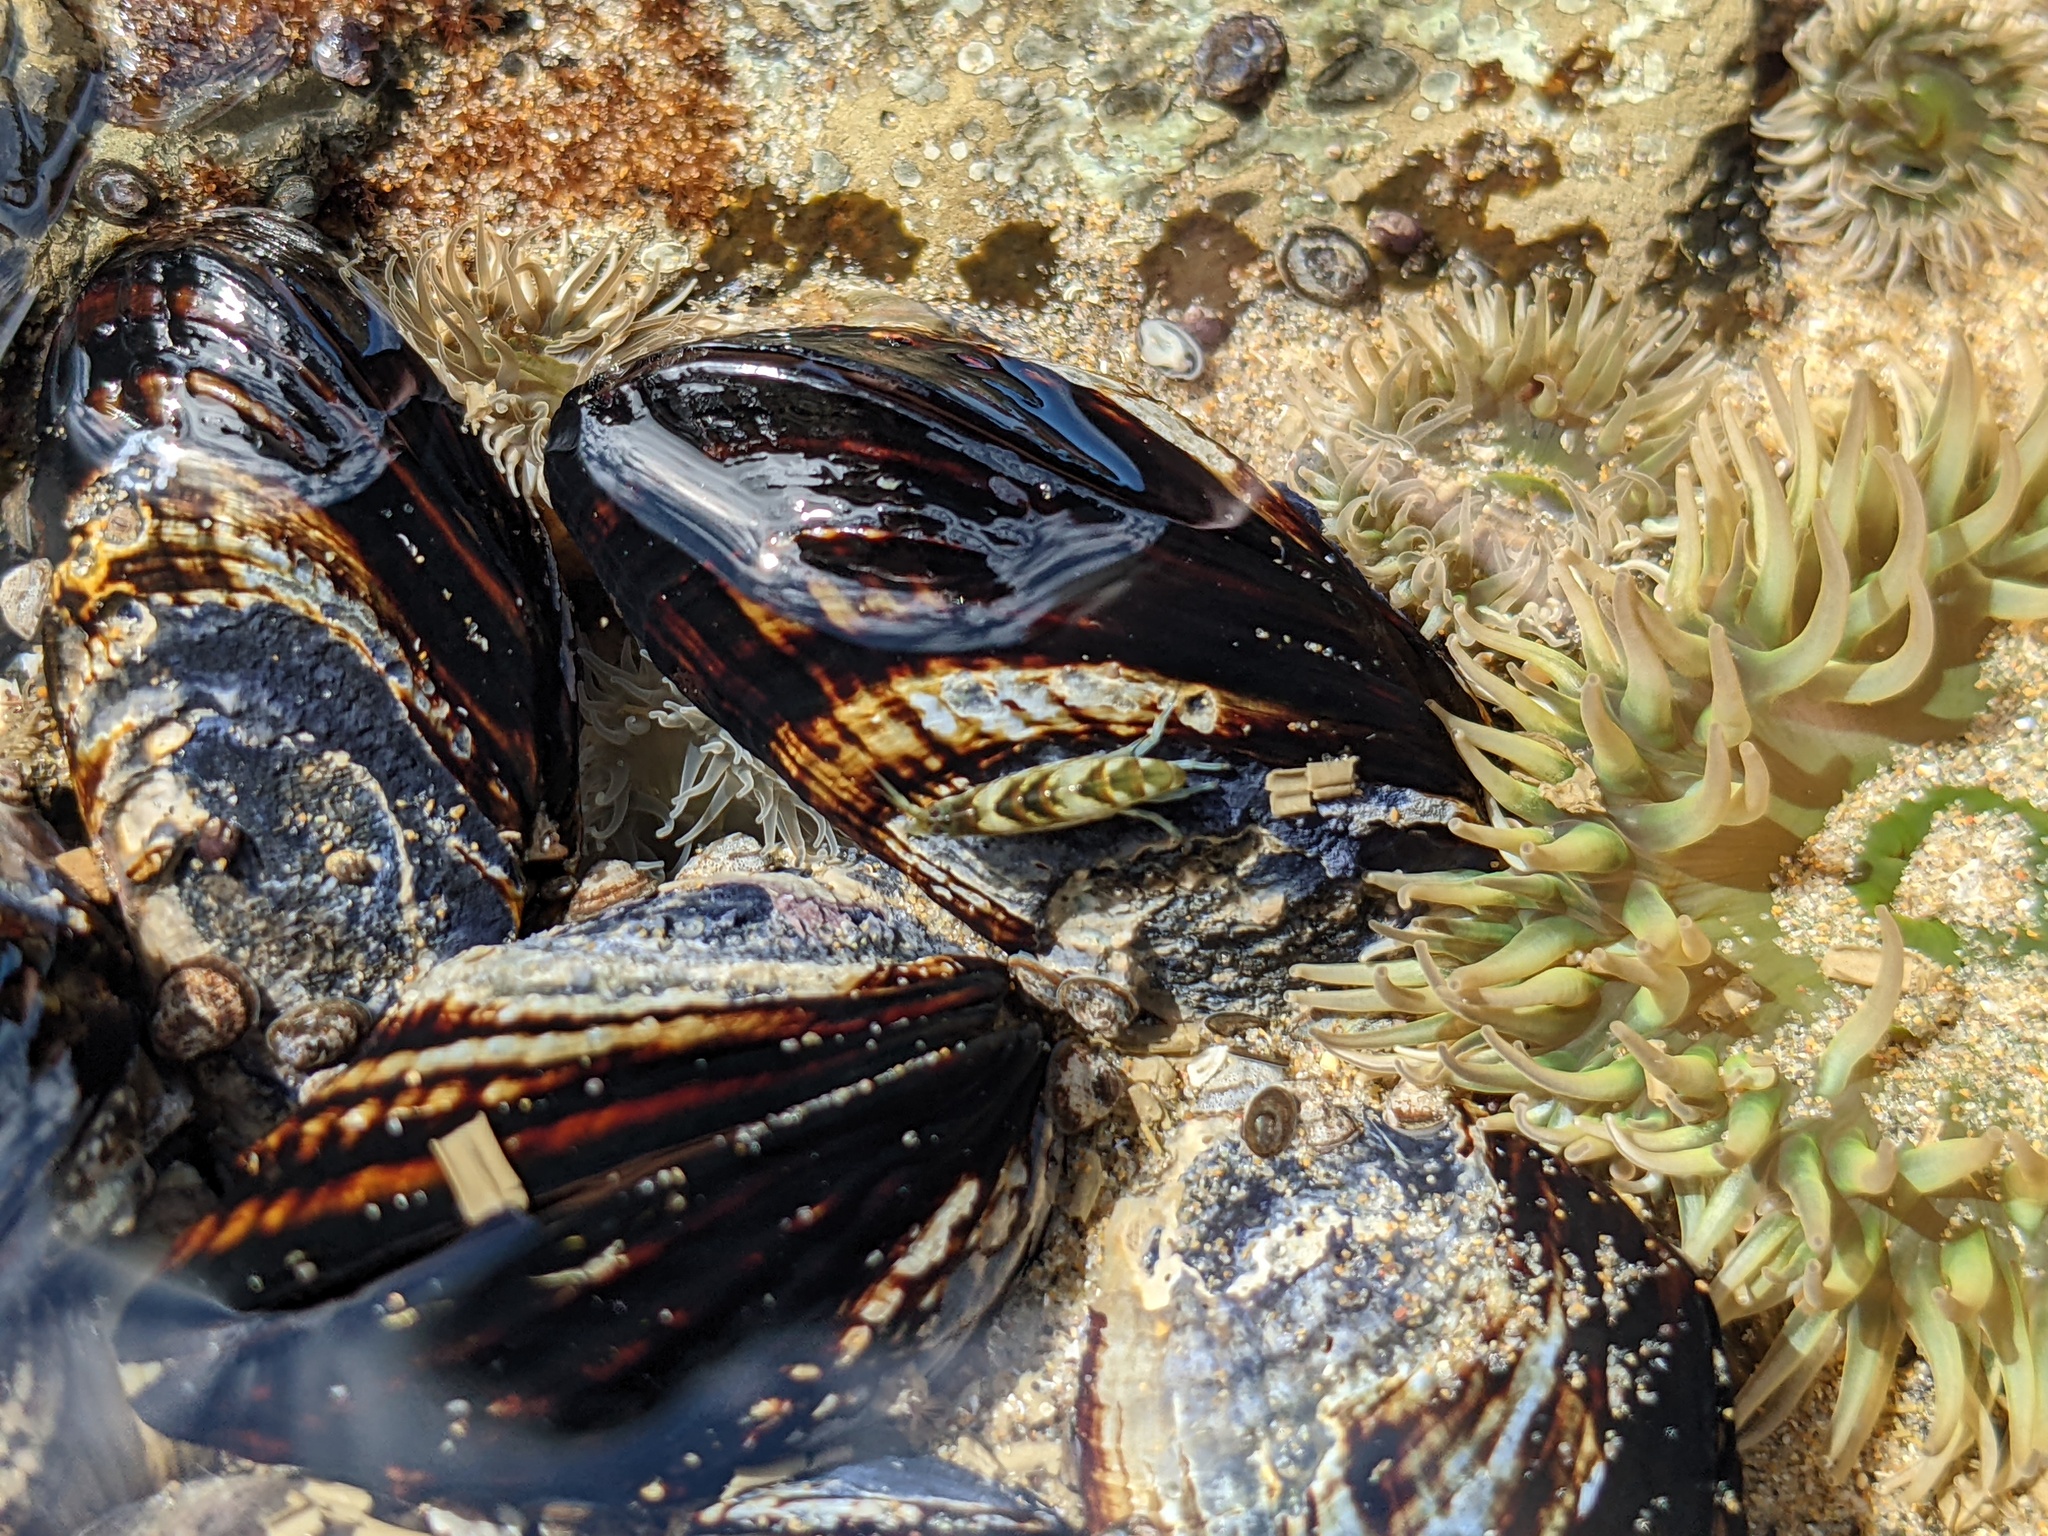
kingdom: Animalia
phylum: Mollusca
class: Bivalvia
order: Mytilida
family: Mytilidae
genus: Mytilus
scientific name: Mytilus californianus
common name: California mussel
